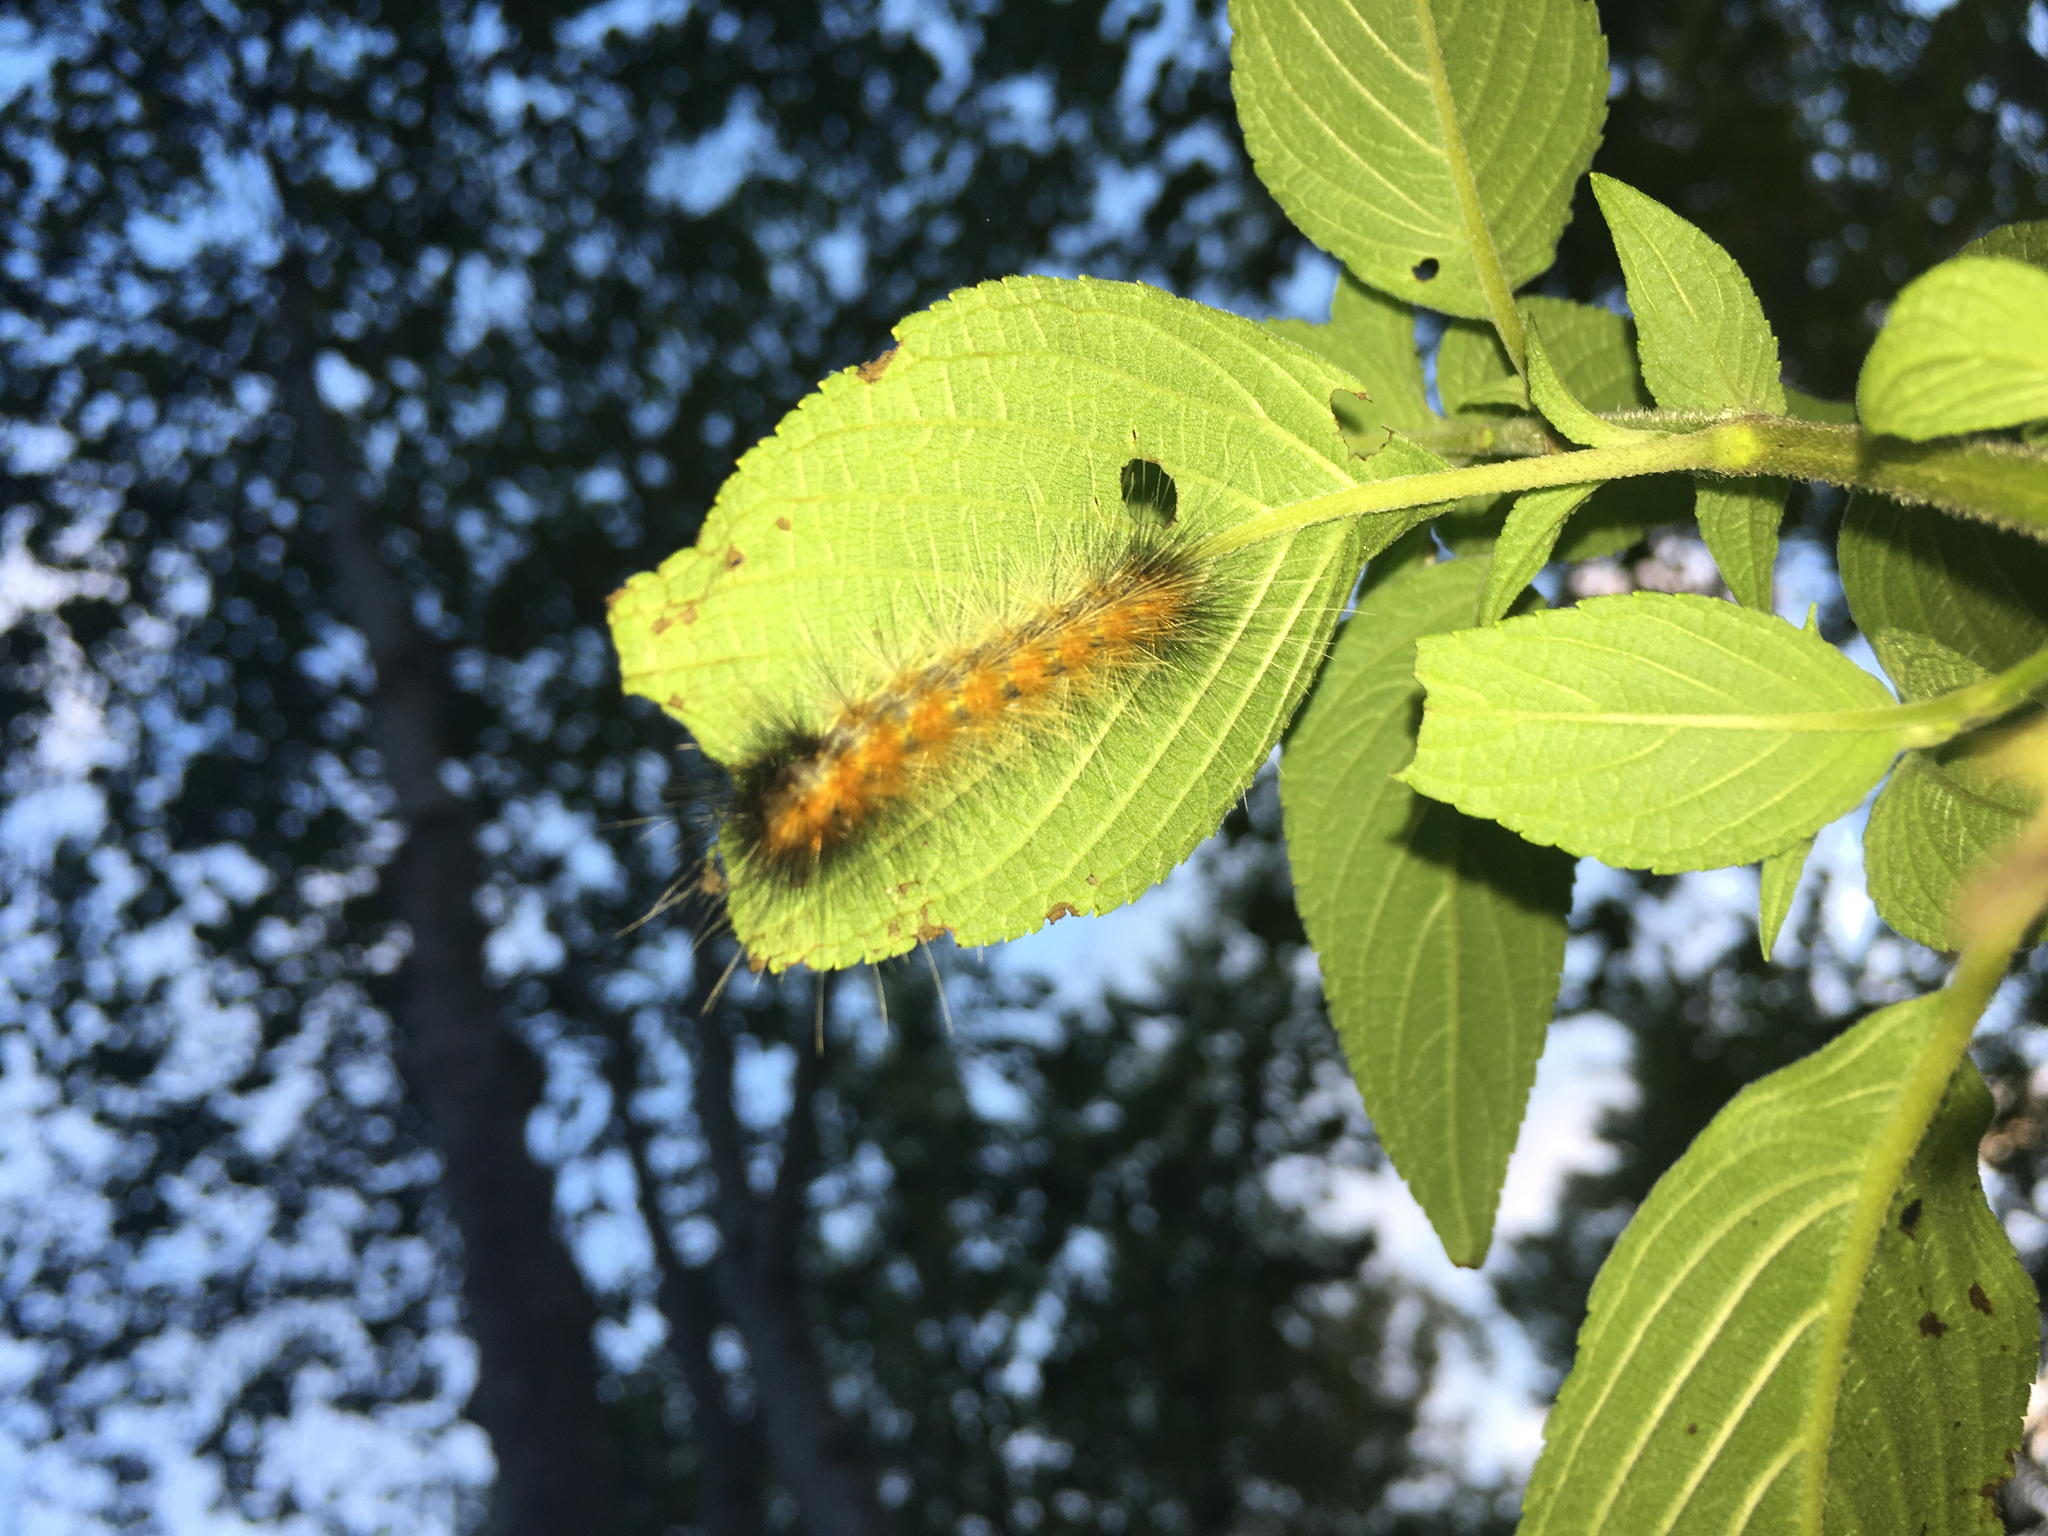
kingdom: Animalia
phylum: Arthropoda
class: Insecta
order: Lepidoptera
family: Erebidae
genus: Spilosoma
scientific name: Spilosoma virginica
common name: Virginia tiger moth
